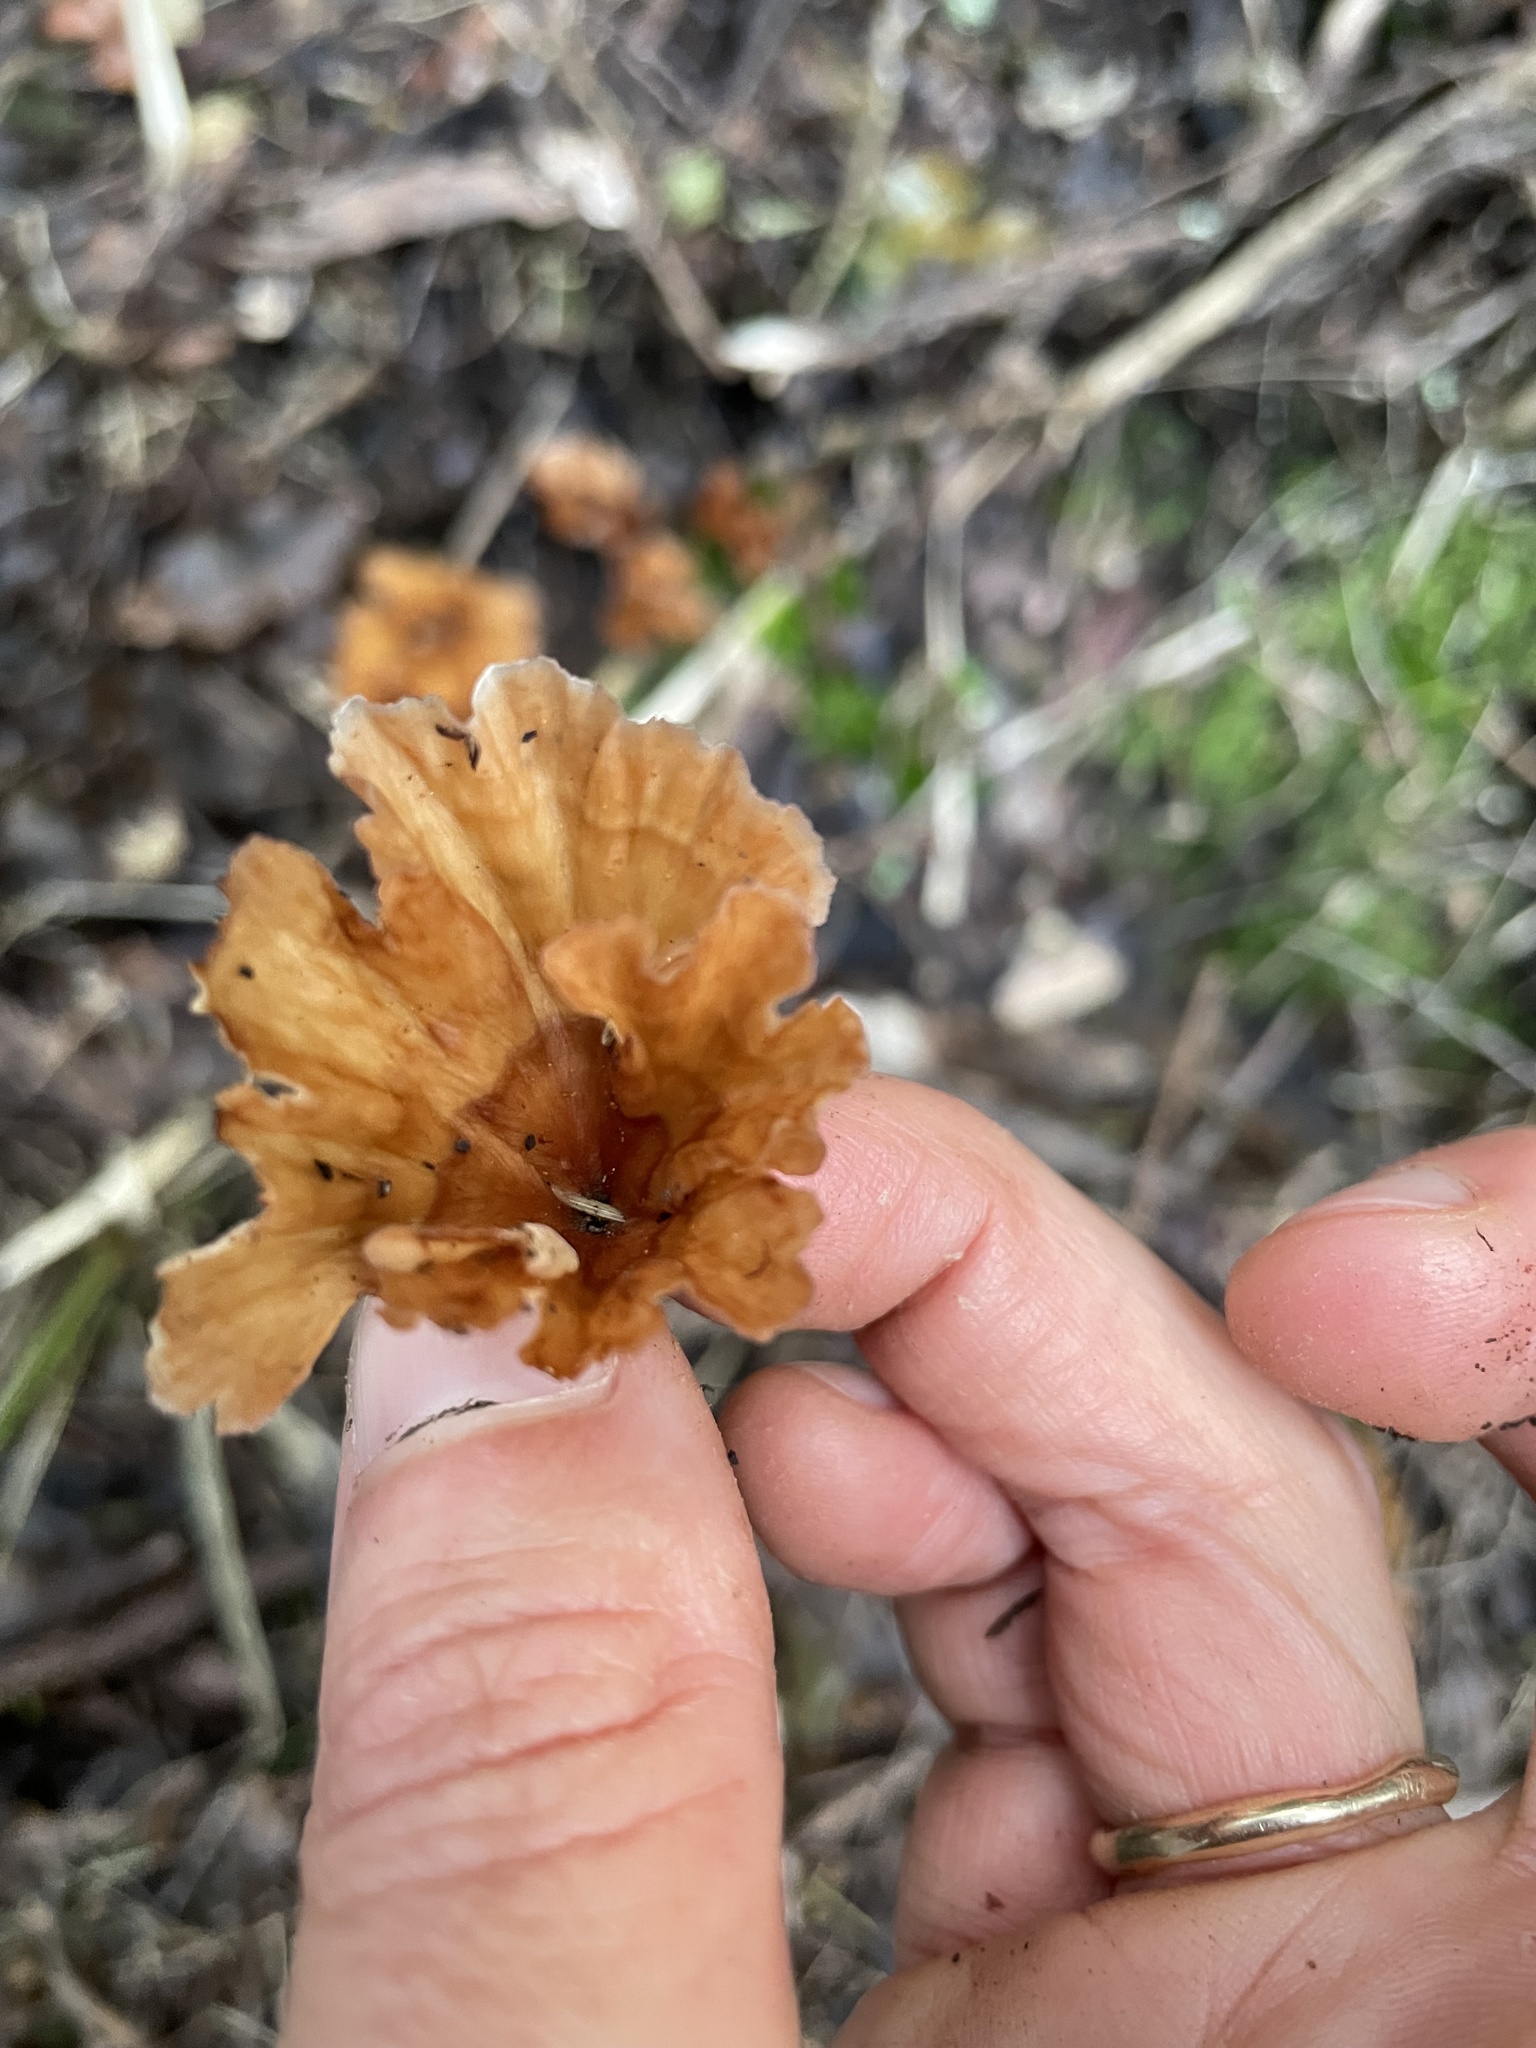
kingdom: Fungi
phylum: Basidiomycota
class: Agaricomycetes
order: Polyporales
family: Podoscyphaceae
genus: Podoscypha
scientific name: Podoscypha petalodes
